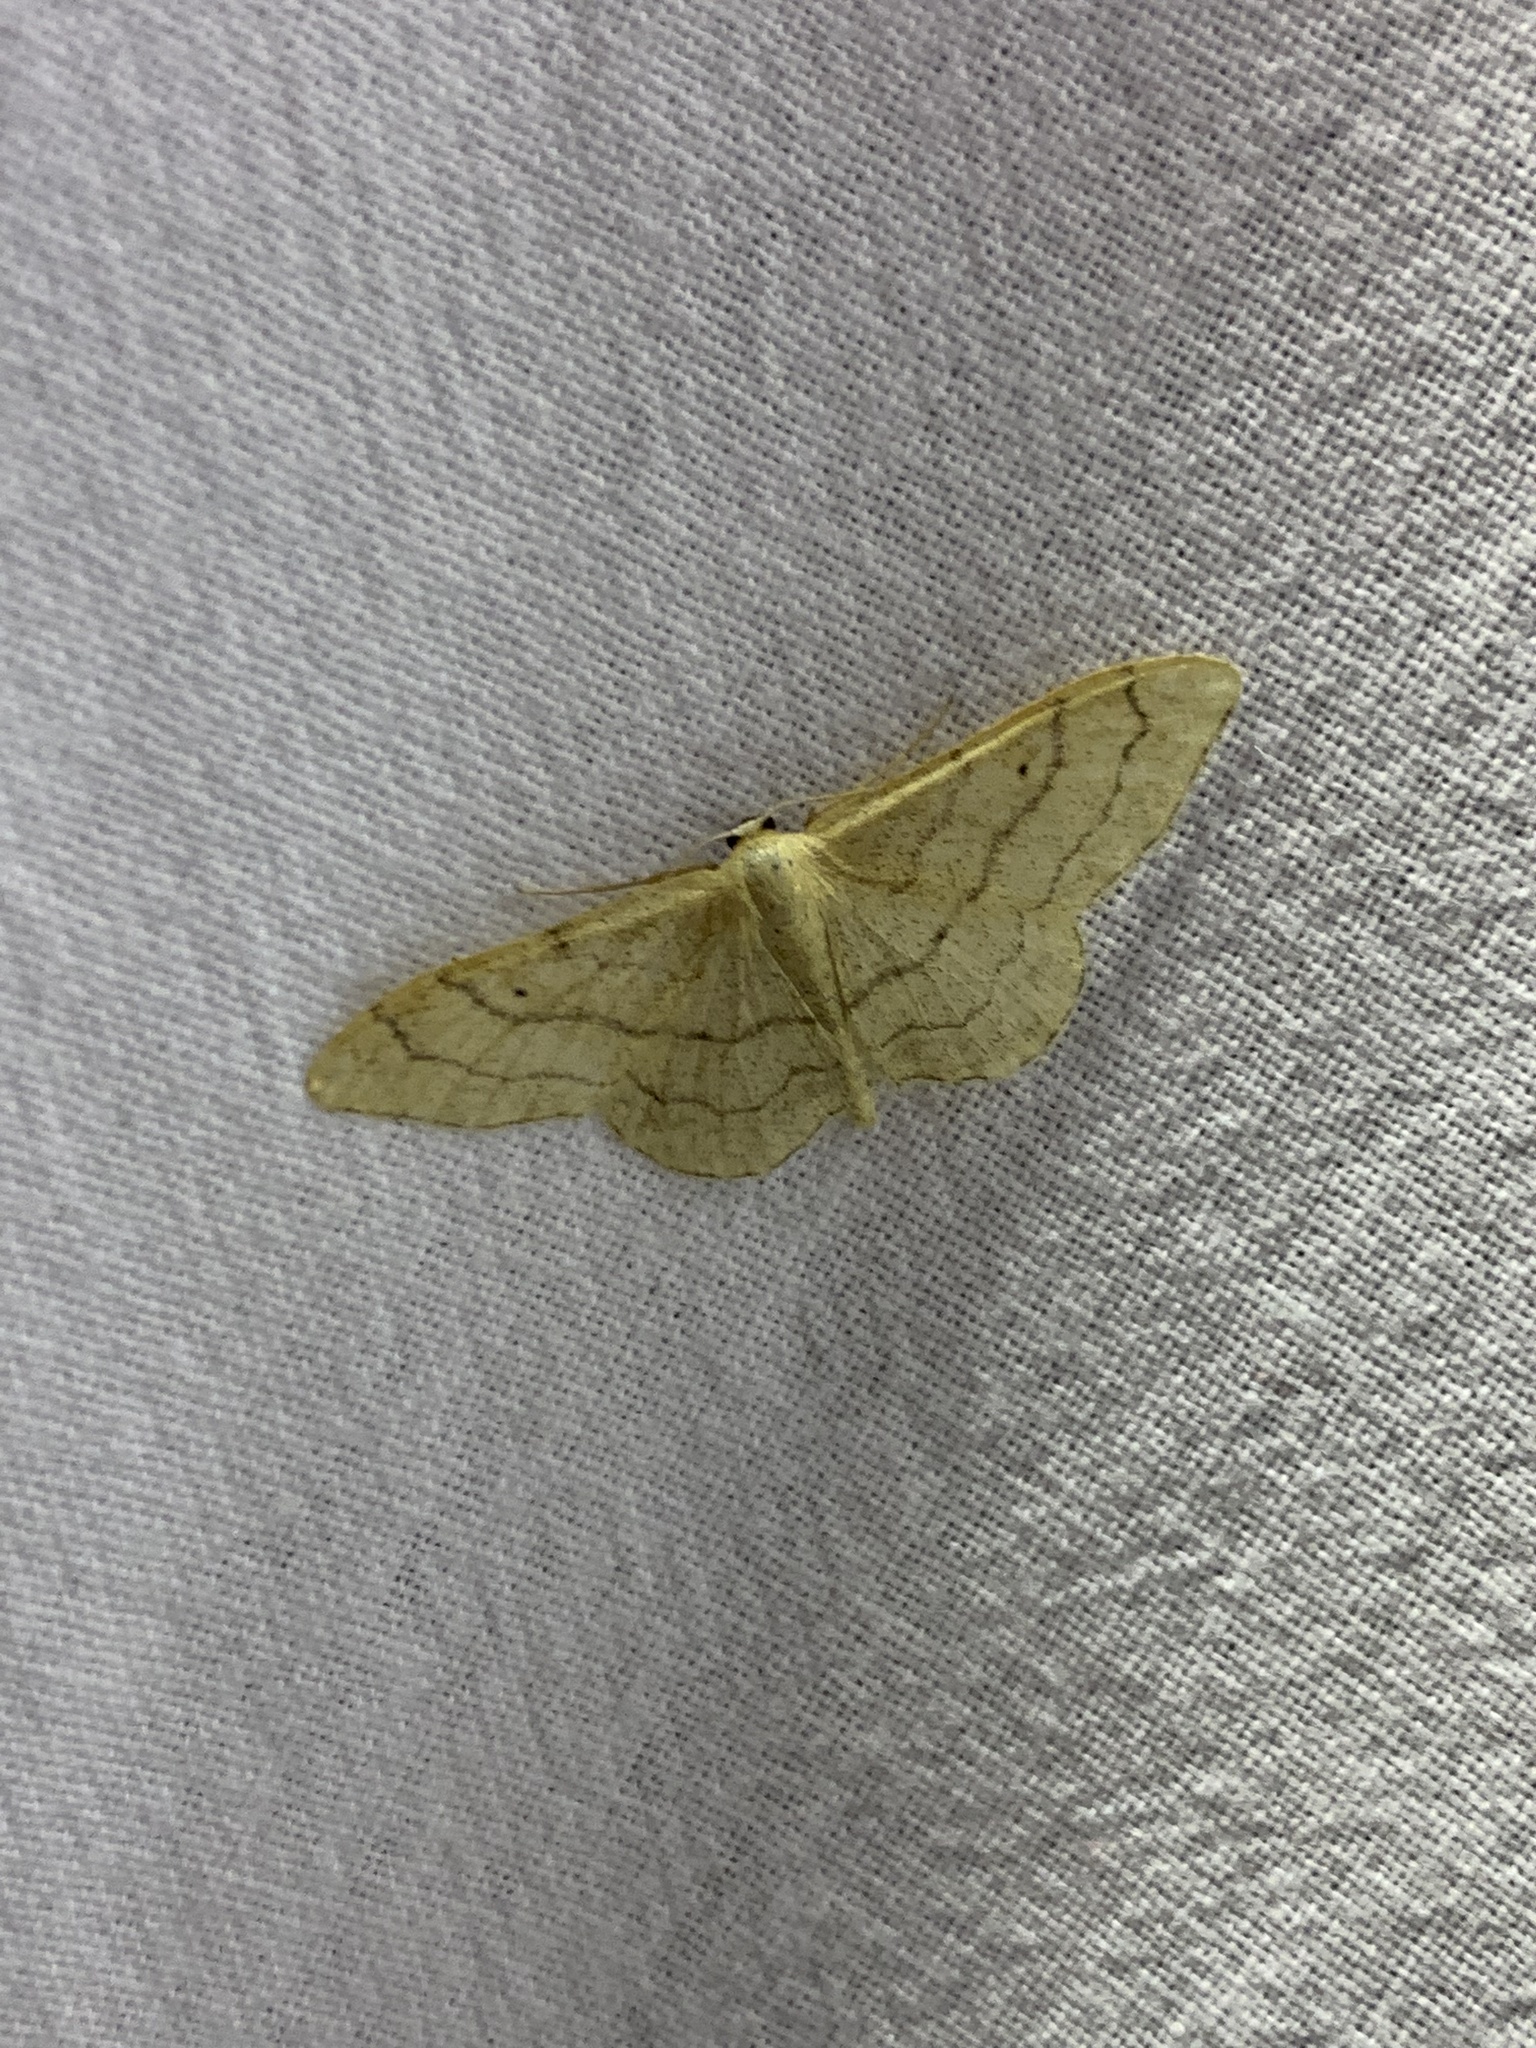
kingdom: Animalia
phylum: Arthropoda
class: Insecta
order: Lepidoptera
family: Geometridae
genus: Idaea
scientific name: Idaea aversata
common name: Riband wave
